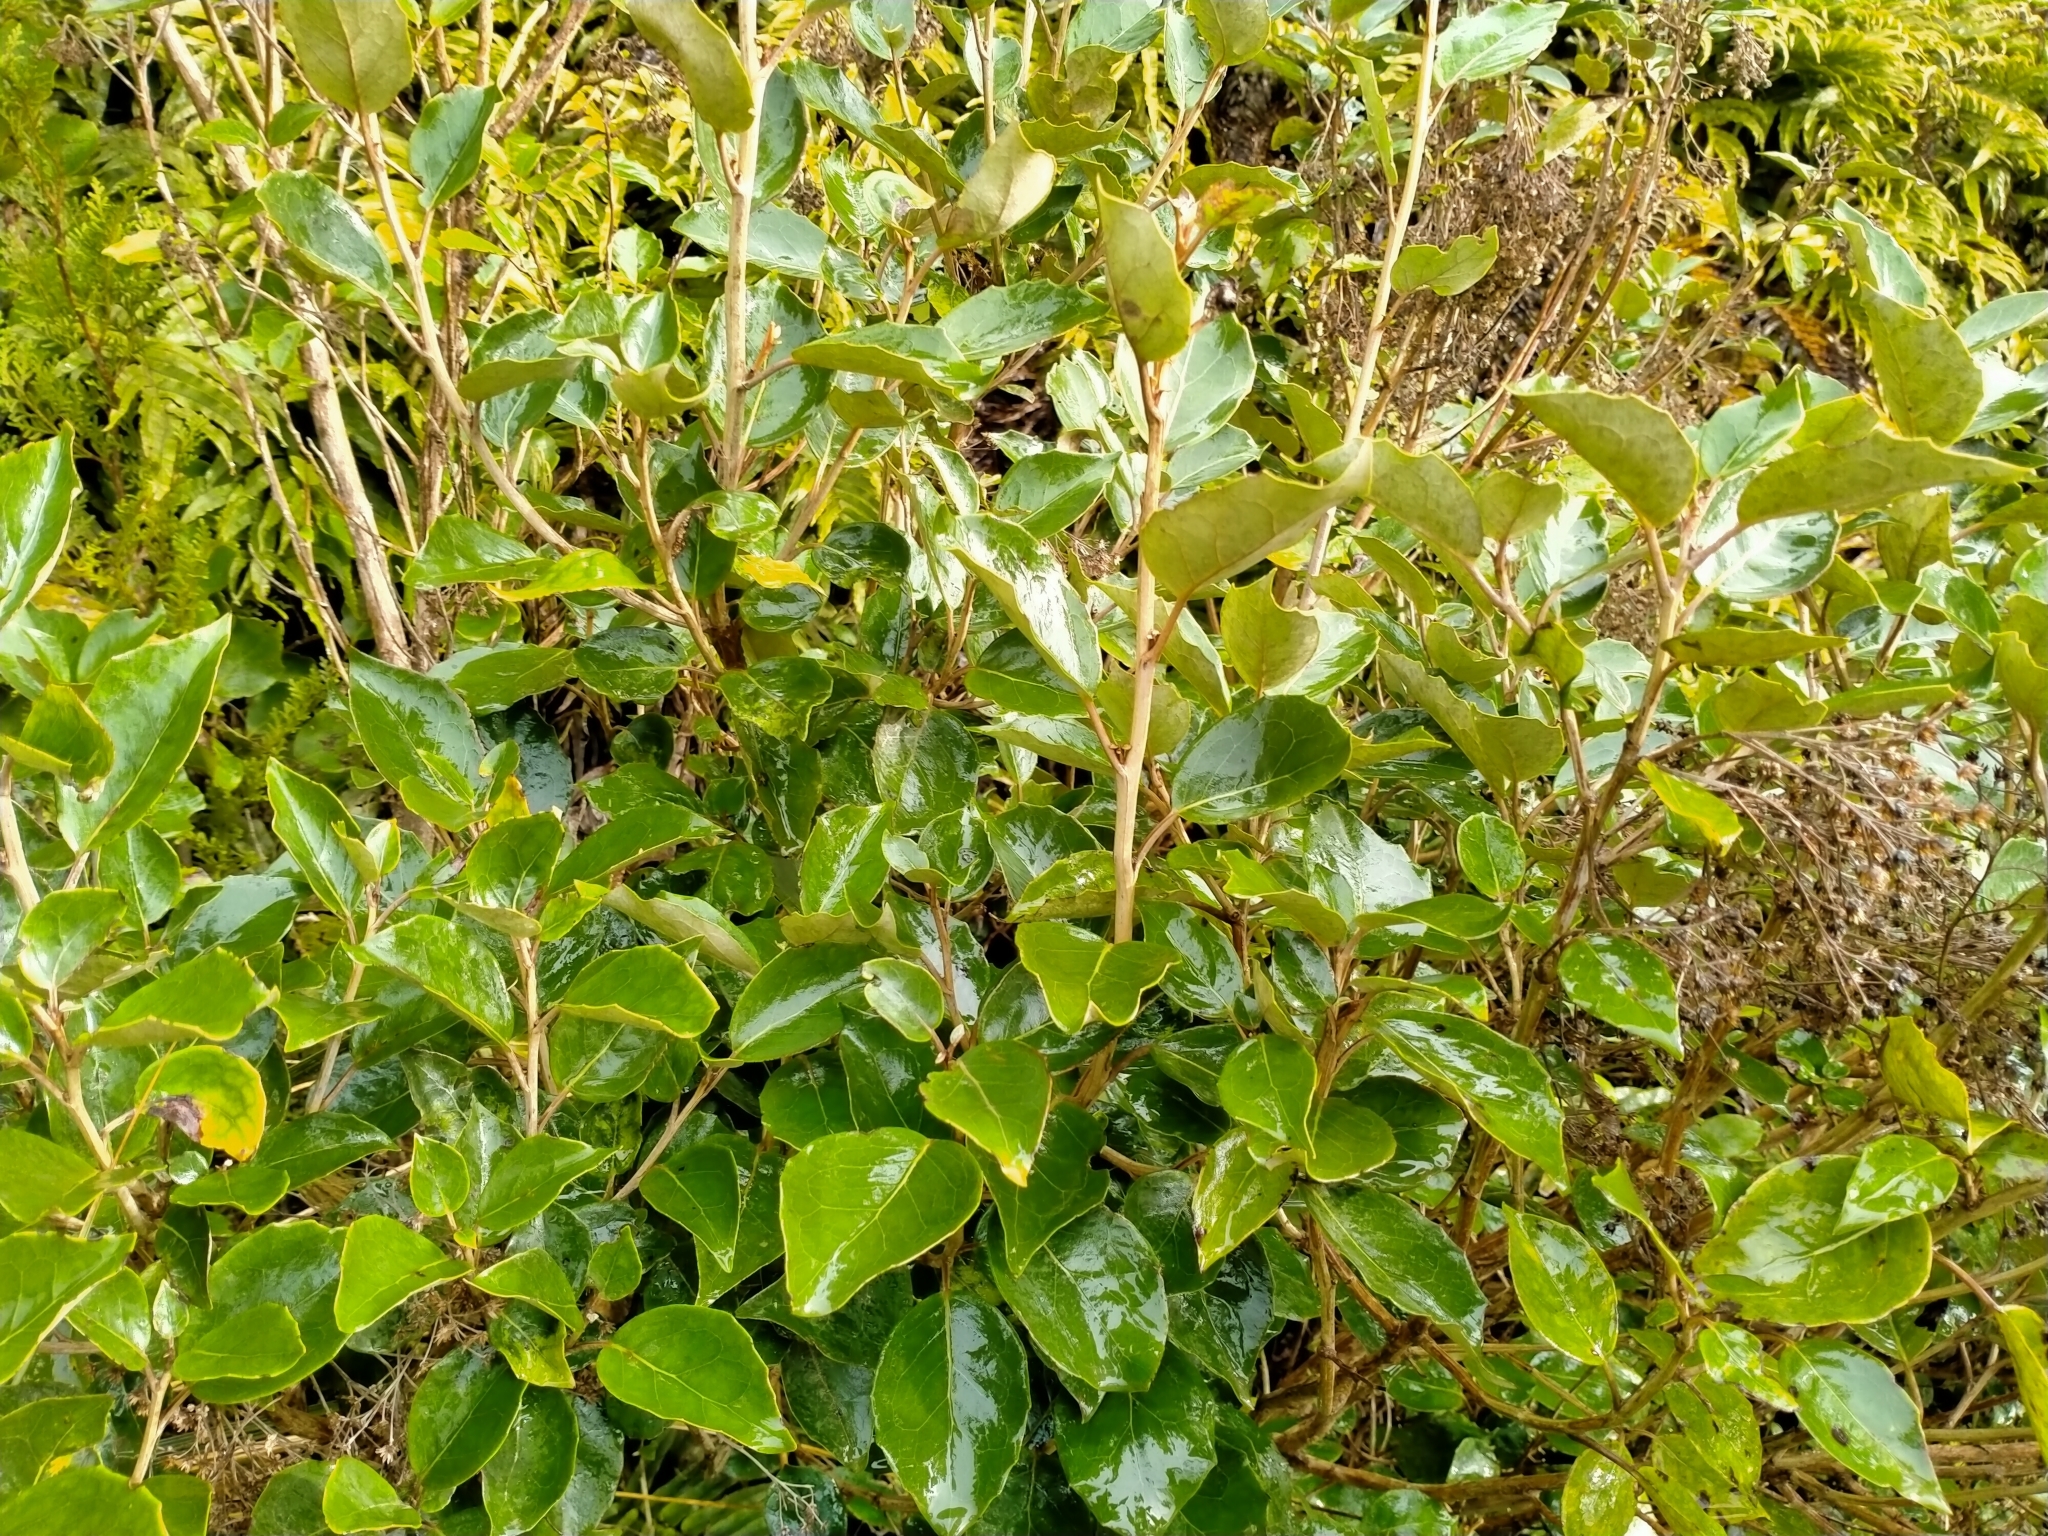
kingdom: Plantae
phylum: Tracheophyta
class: Magnoliopsida
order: Asterales
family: Asteraceae
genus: Olearia
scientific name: Olearia arborescens
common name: Glossy tree daisy
